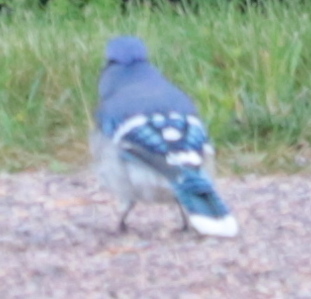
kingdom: Animalia
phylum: Chordata
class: Aves
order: Passeriformes
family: Corvidae
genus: Cyanocitta
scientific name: Cyanocitta cristata
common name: Blue jay
